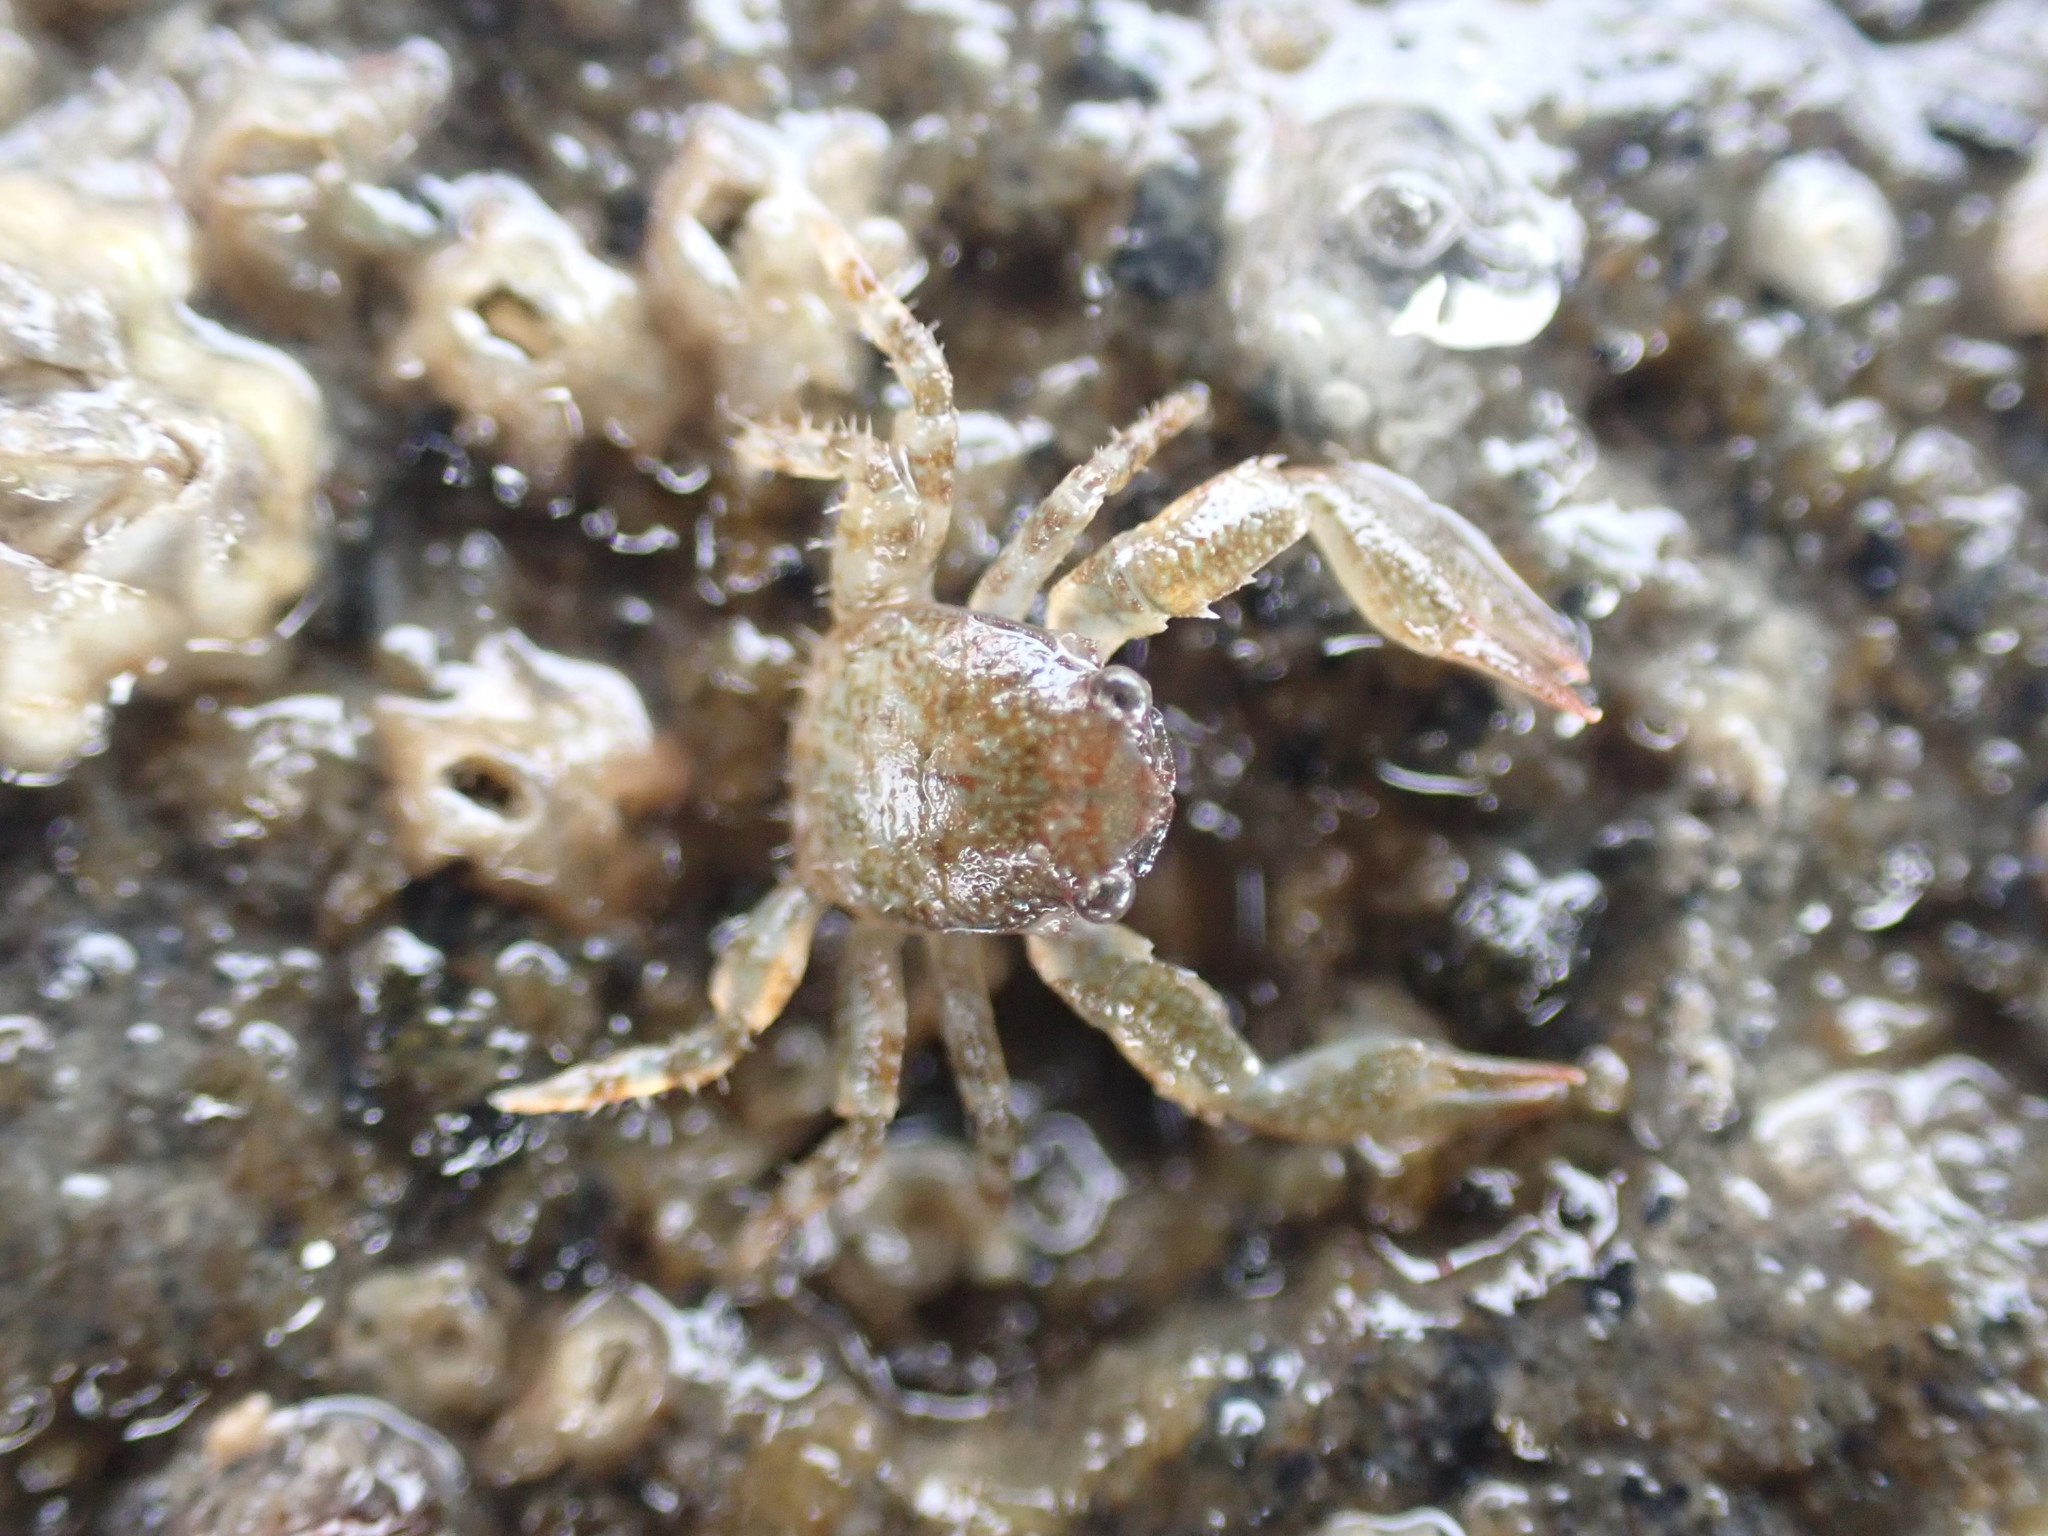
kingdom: Animalia
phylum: Arthropoda
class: Malacostraca
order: Decapoda
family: Porcellanidae
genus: Petrolisthes
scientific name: Petrolisthes novaezelandiae
